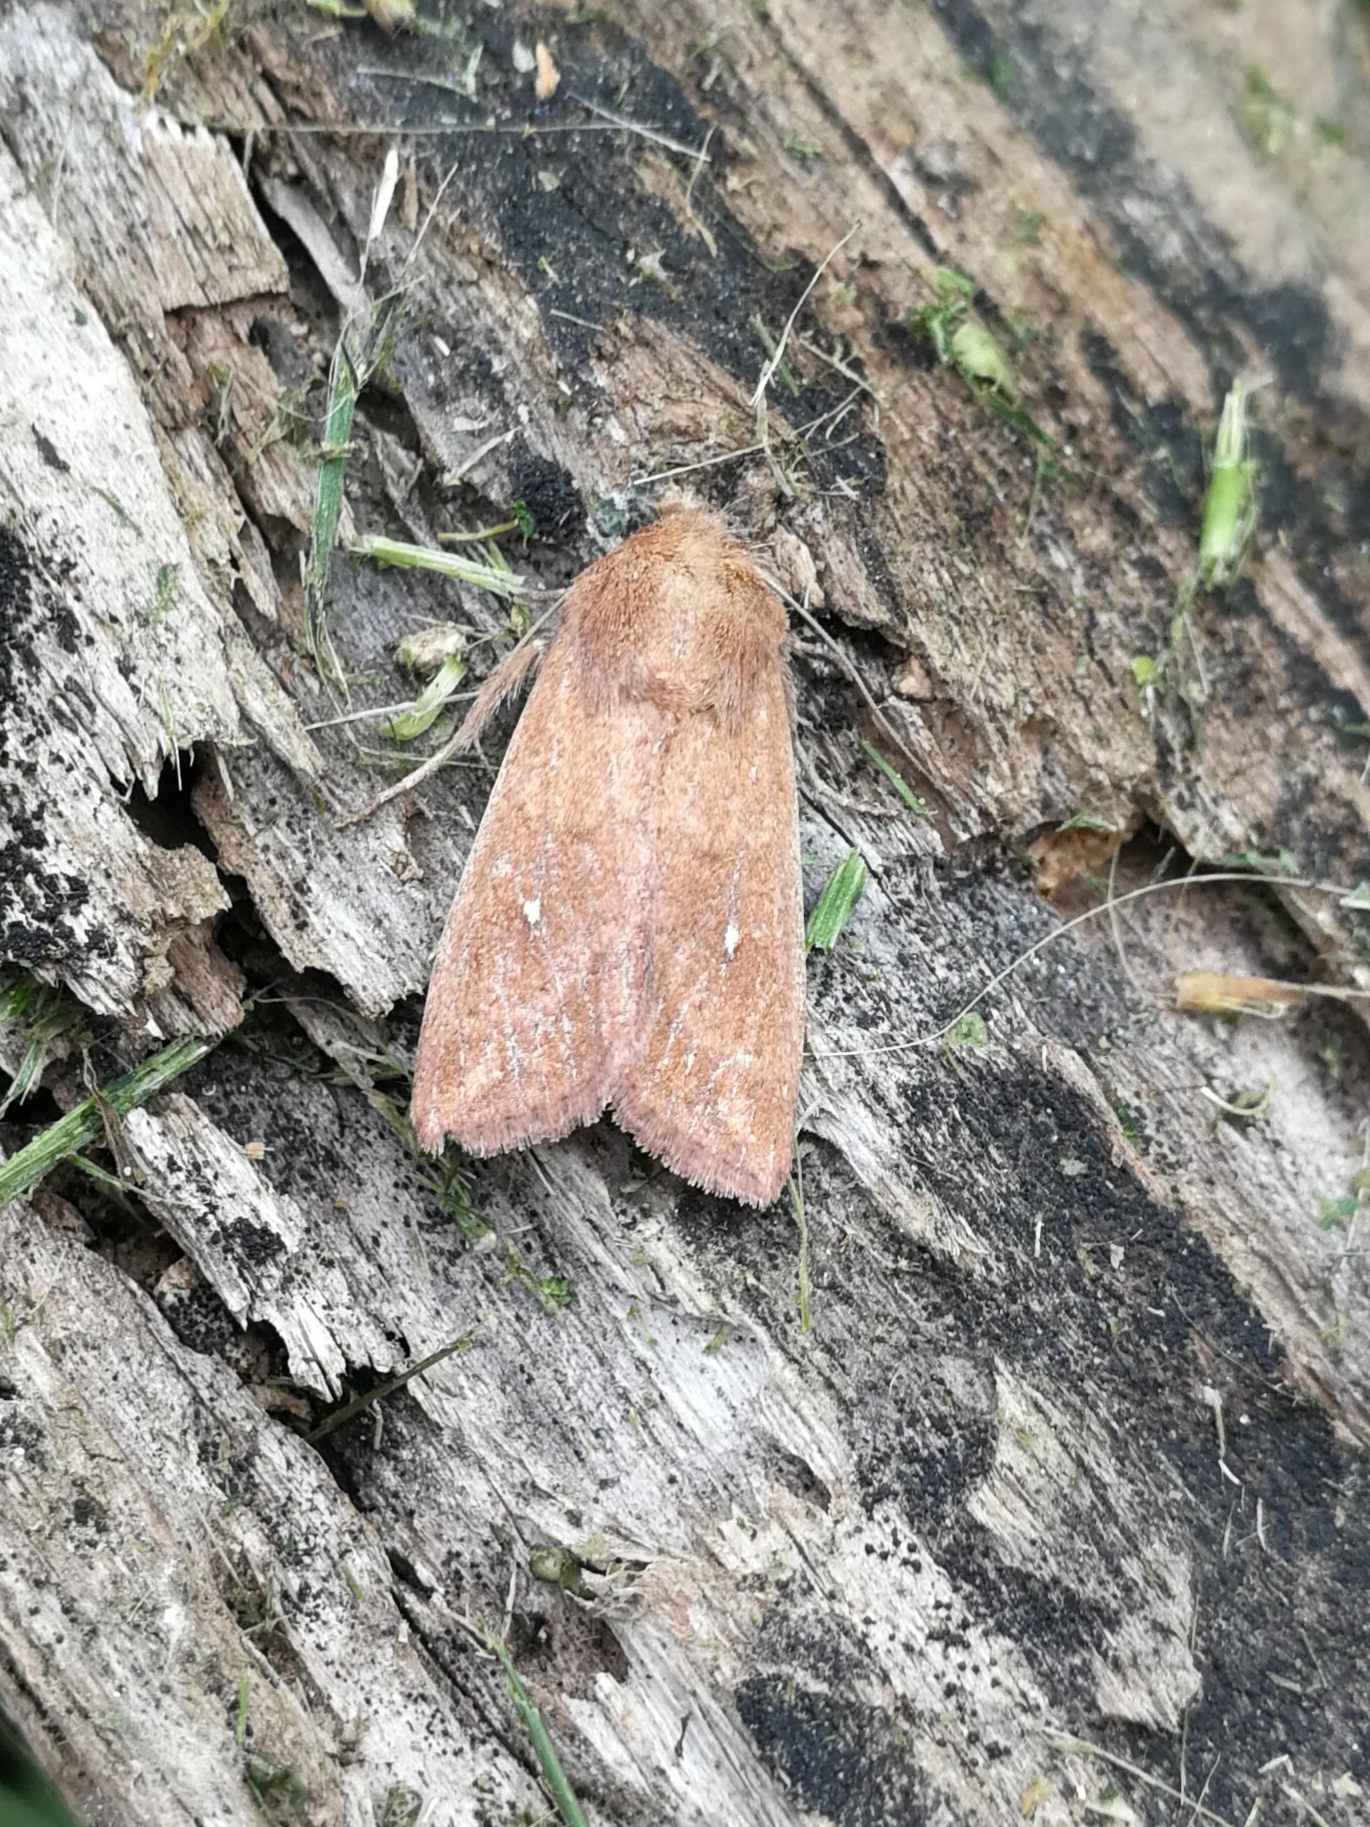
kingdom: Animalia
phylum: Arthropoda
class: Insecta
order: Lepidoptera
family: Noctuidae
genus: Mythimna
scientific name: Mythimna albipuncta
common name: White-point
